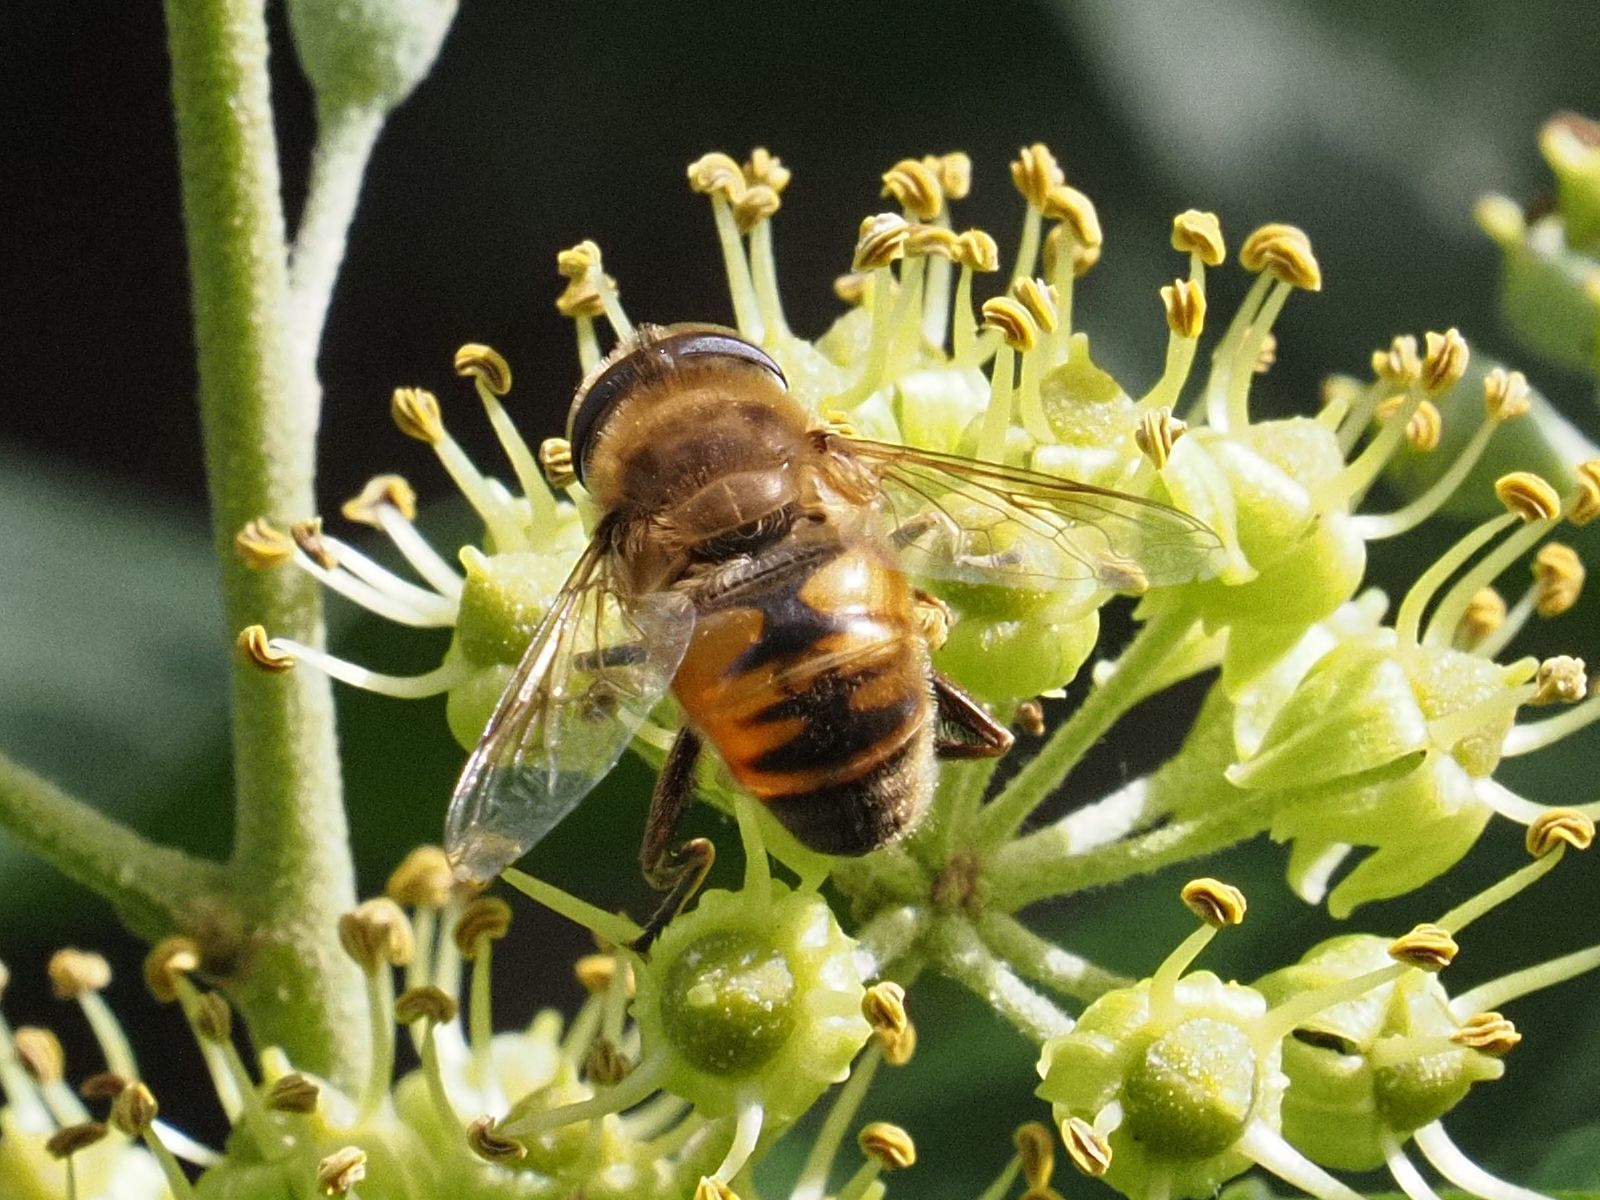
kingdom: Animalia
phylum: Arthropoda
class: Insecta
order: Diptera
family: Syrphidae
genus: Eristalis
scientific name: Eristalis tenax
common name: Drone fly
